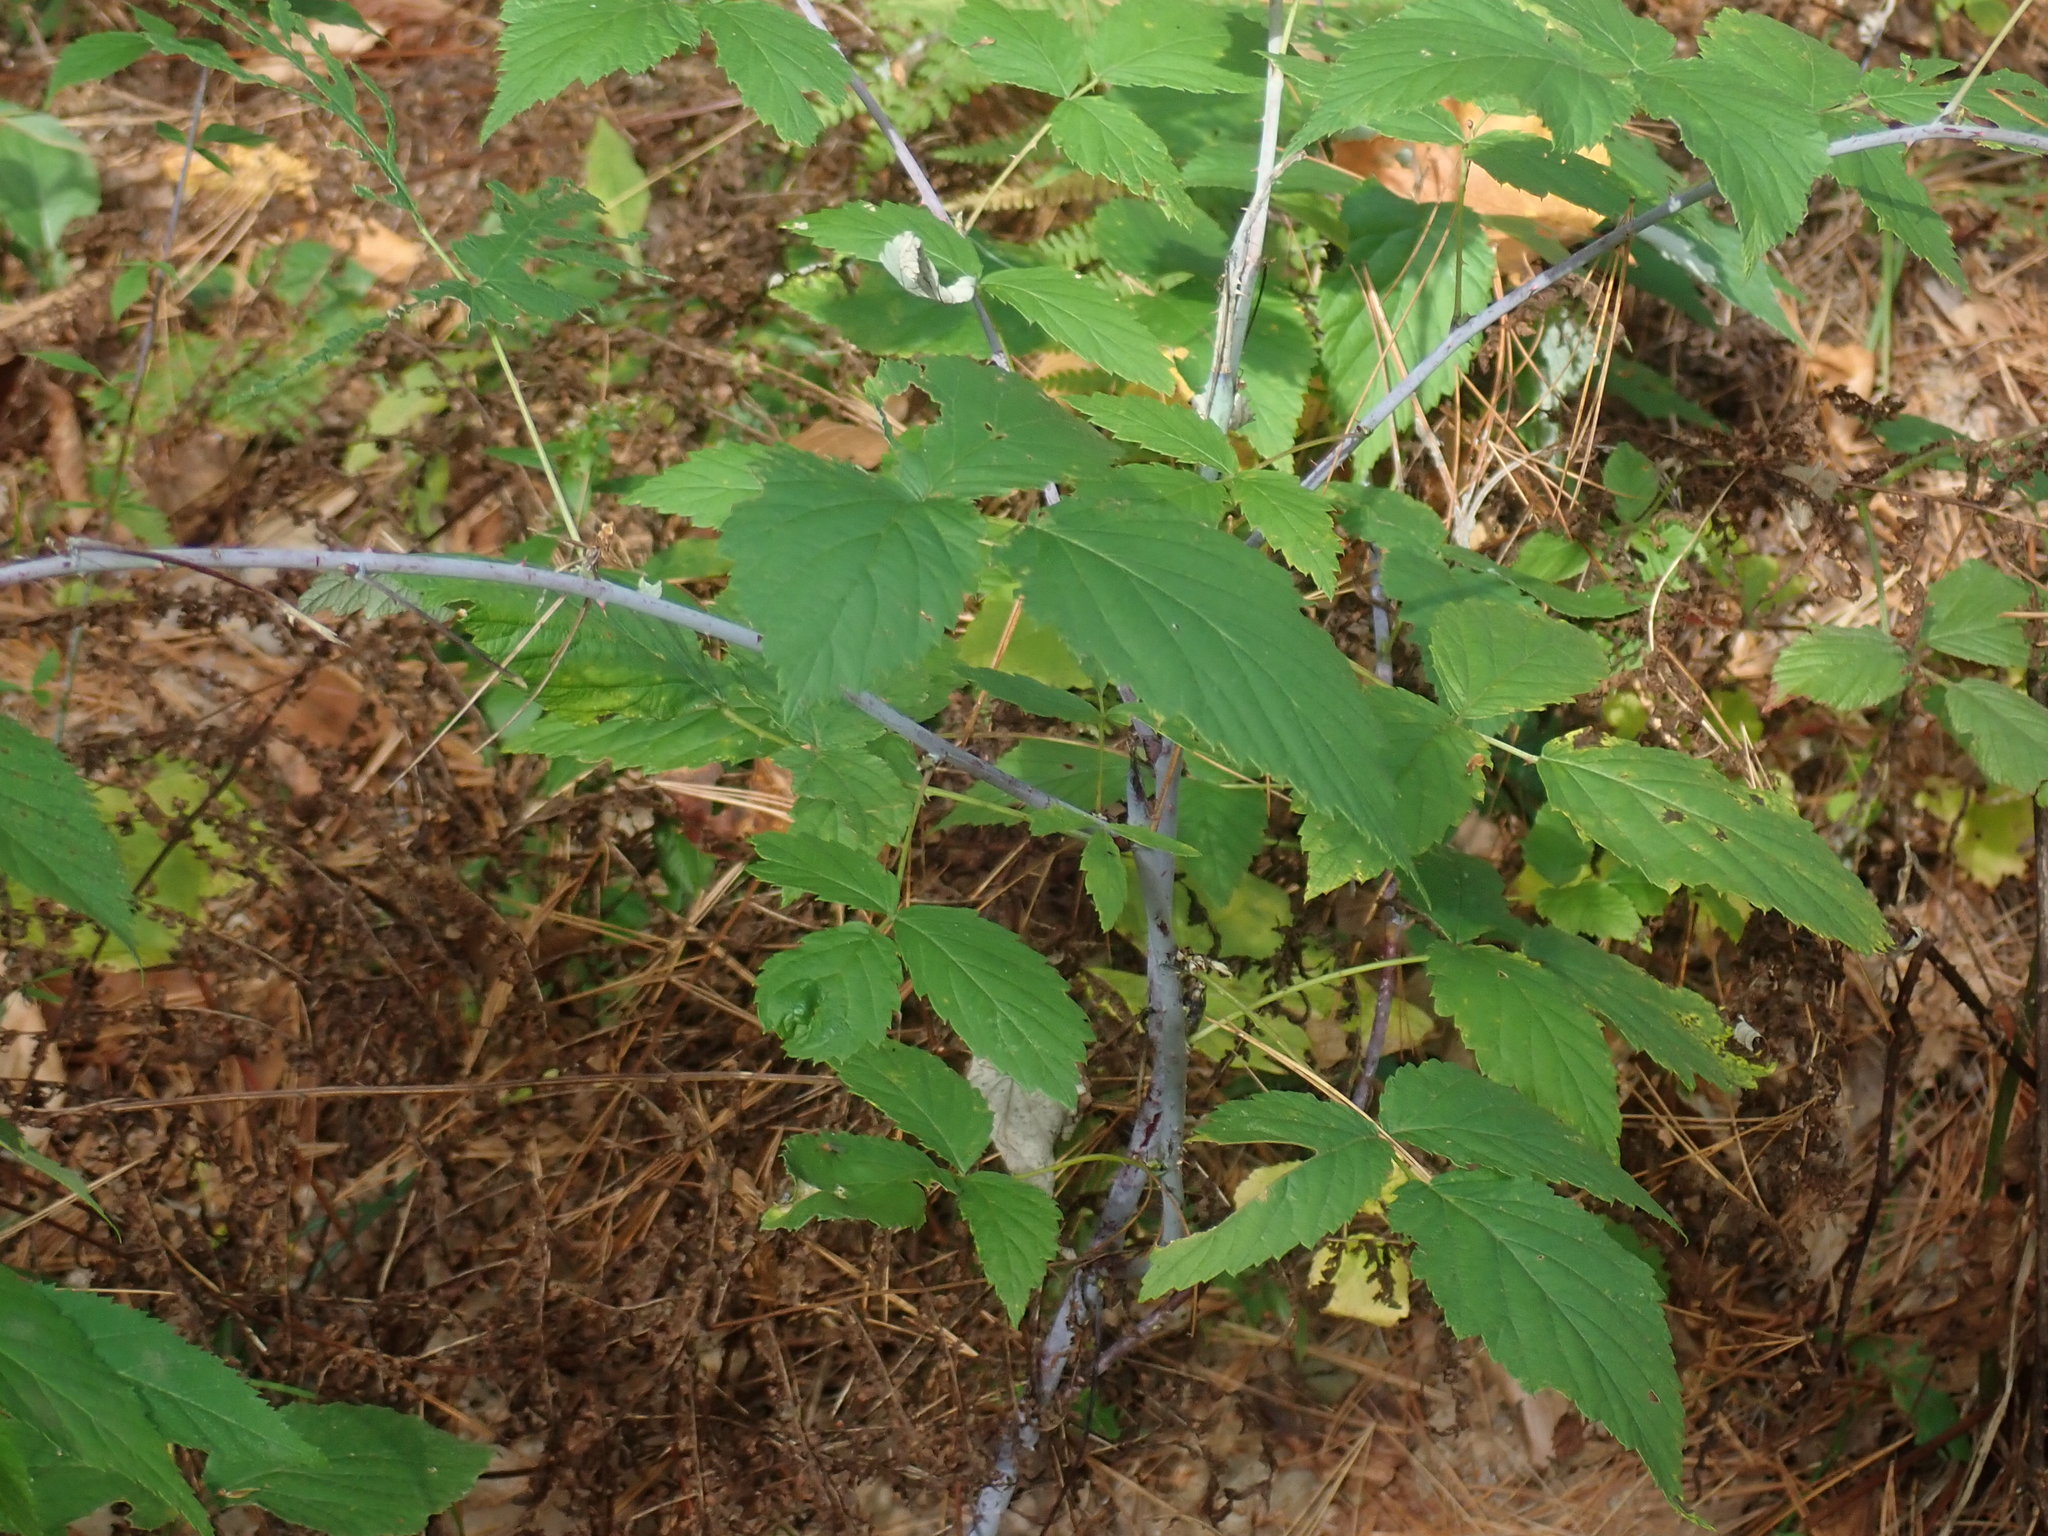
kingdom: Plantae
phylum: Tracheophyta
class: Magnoliopsida
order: Rosales
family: Rosaceae
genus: Rubus
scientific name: Rubus occidentalis
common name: Black raspberry
